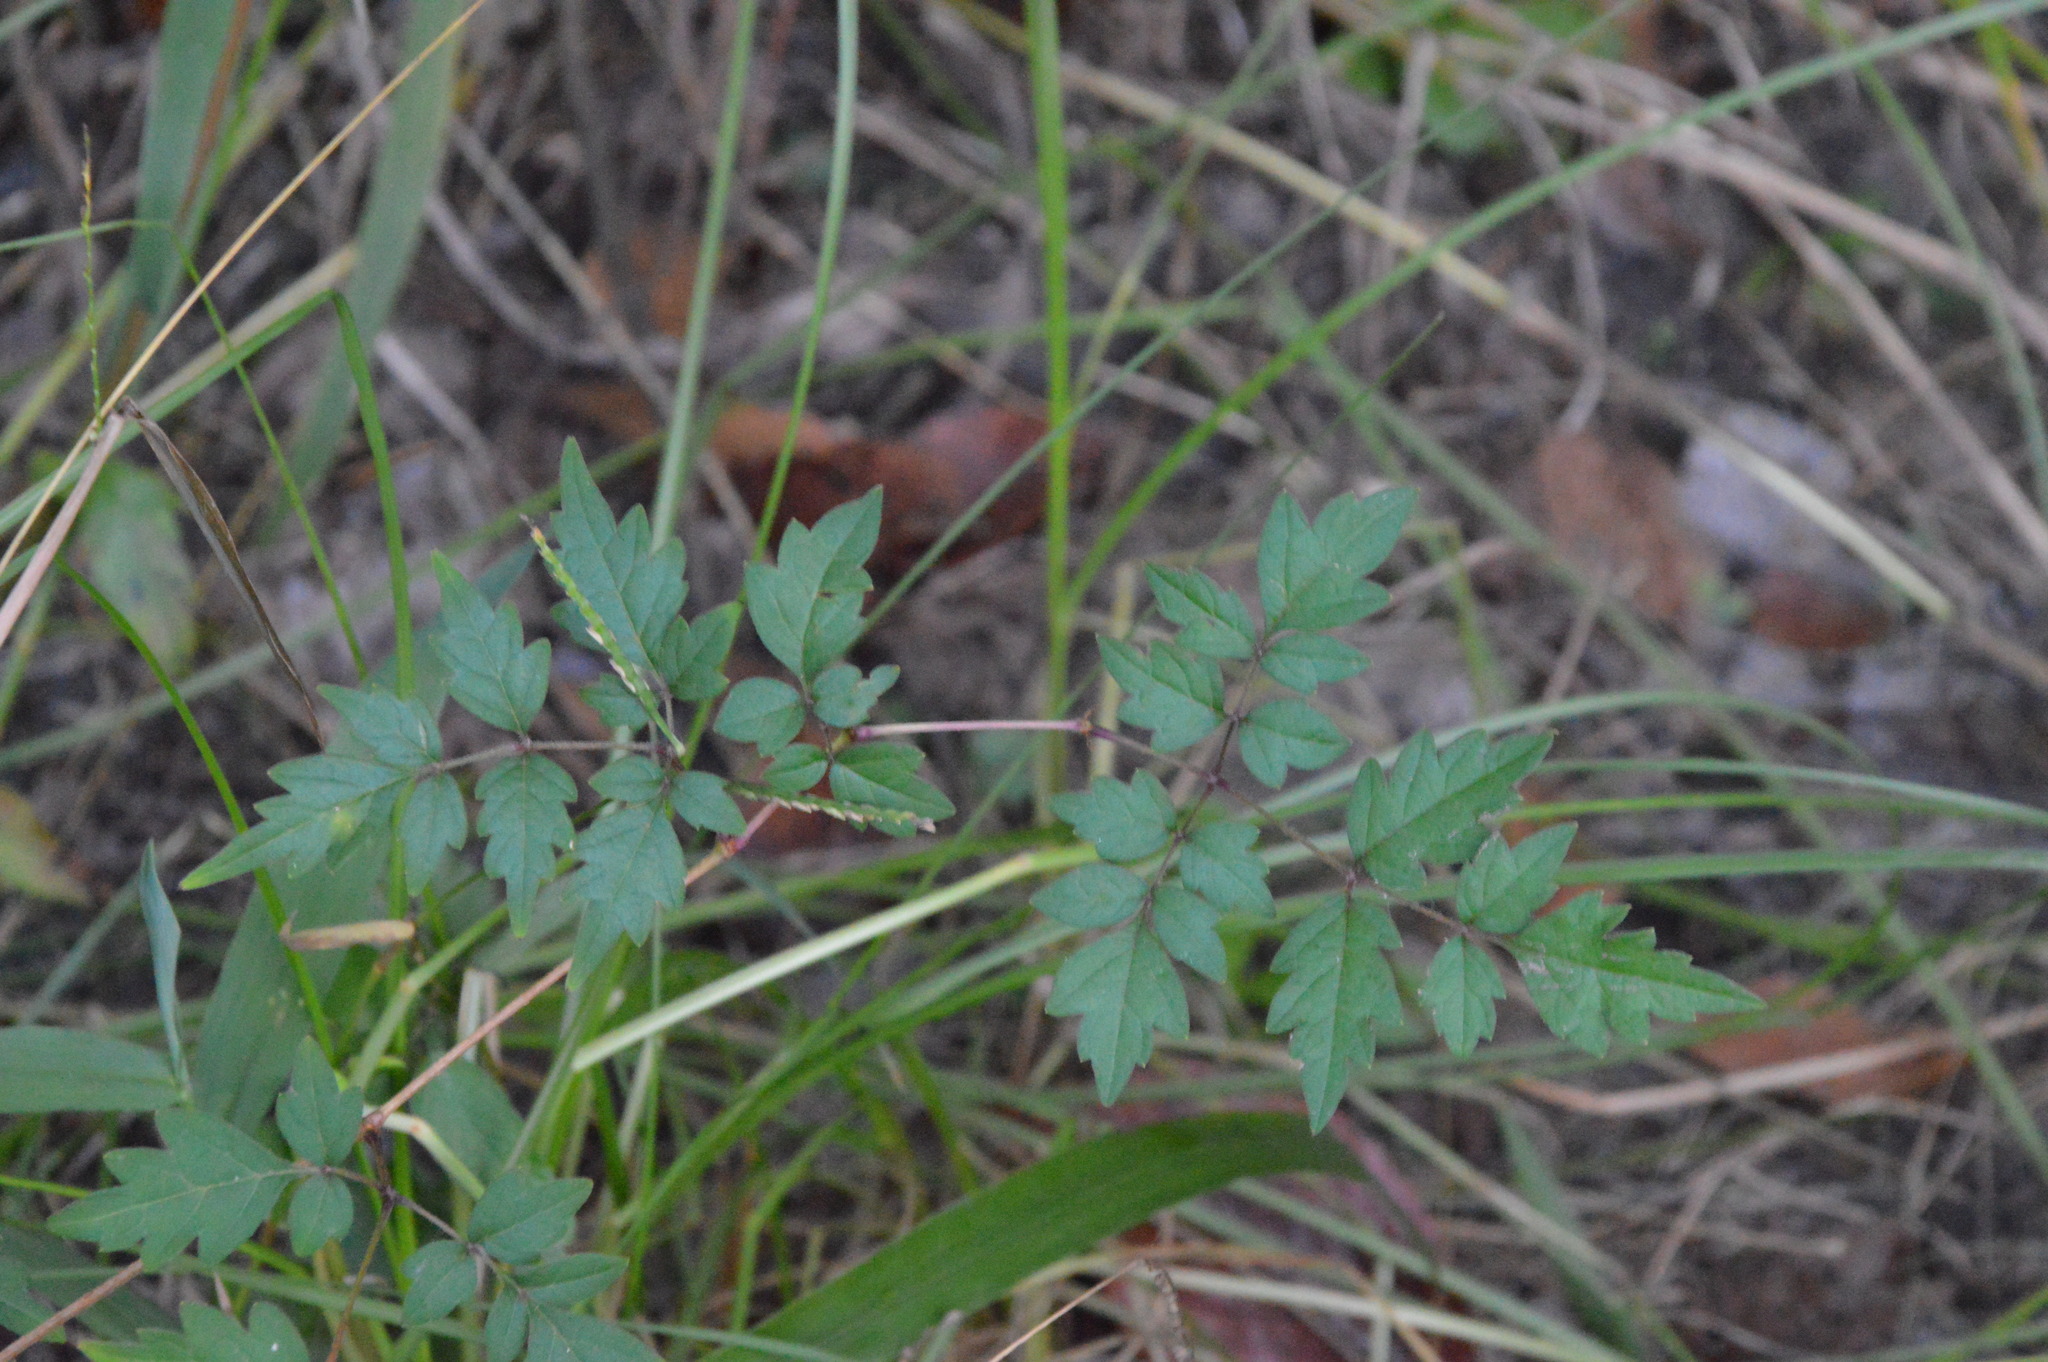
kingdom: Plantae
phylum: Tracheophyta
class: Magnoliopsida
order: Vitales
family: Vitaceae
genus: Nekemias
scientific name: Nekemias arborea
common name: Peppervine
